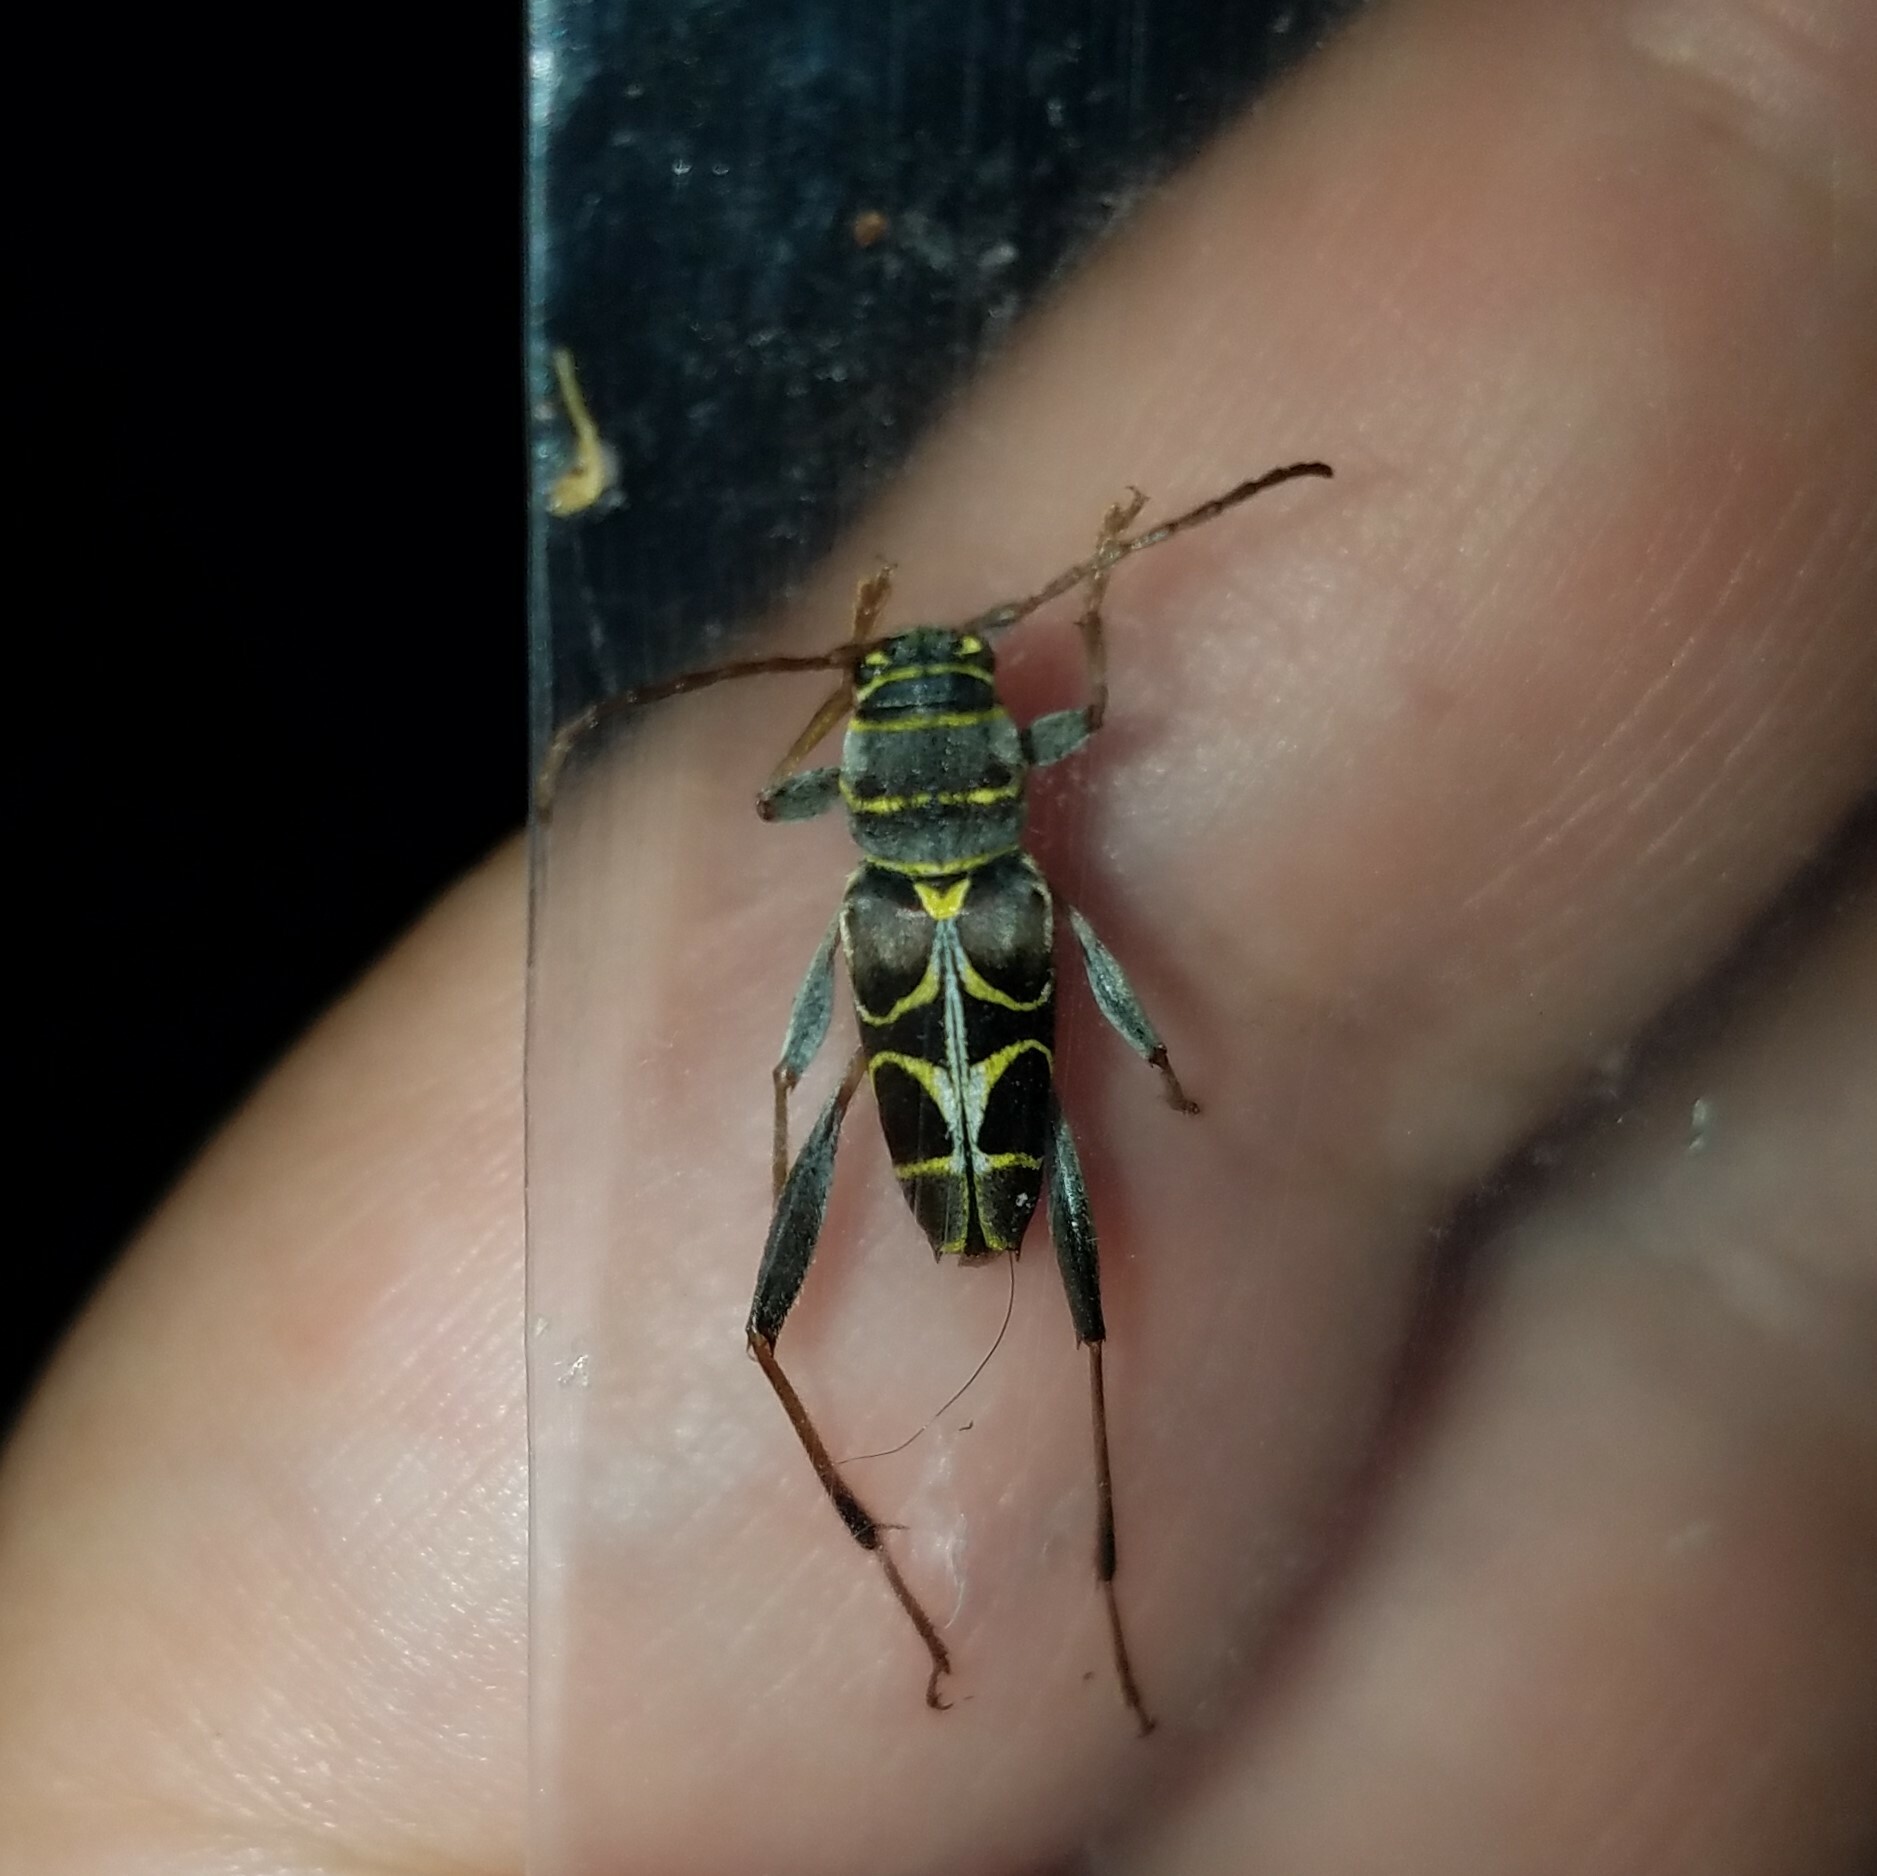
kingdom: Animalia
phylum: Arthropoda
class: Insecta
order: Coleoptera
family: Cerambycidae
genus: Neoclytus
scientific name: Neoclytus scutellaris
